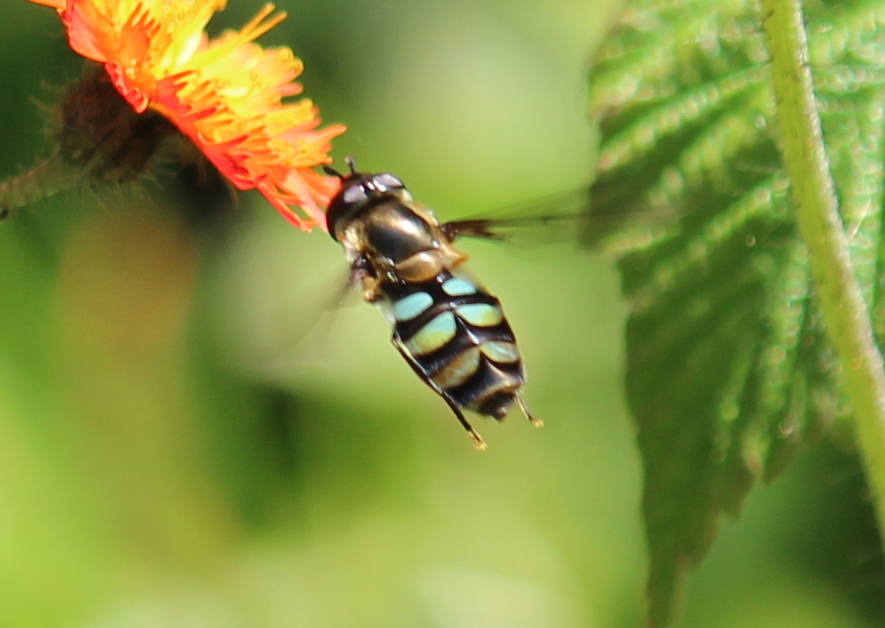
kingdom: Animalia
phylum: Arthropoda
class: Insecta
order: Diptera
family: Syrphidae
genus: Megasyrphus
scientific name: Megasyrphus laxus
